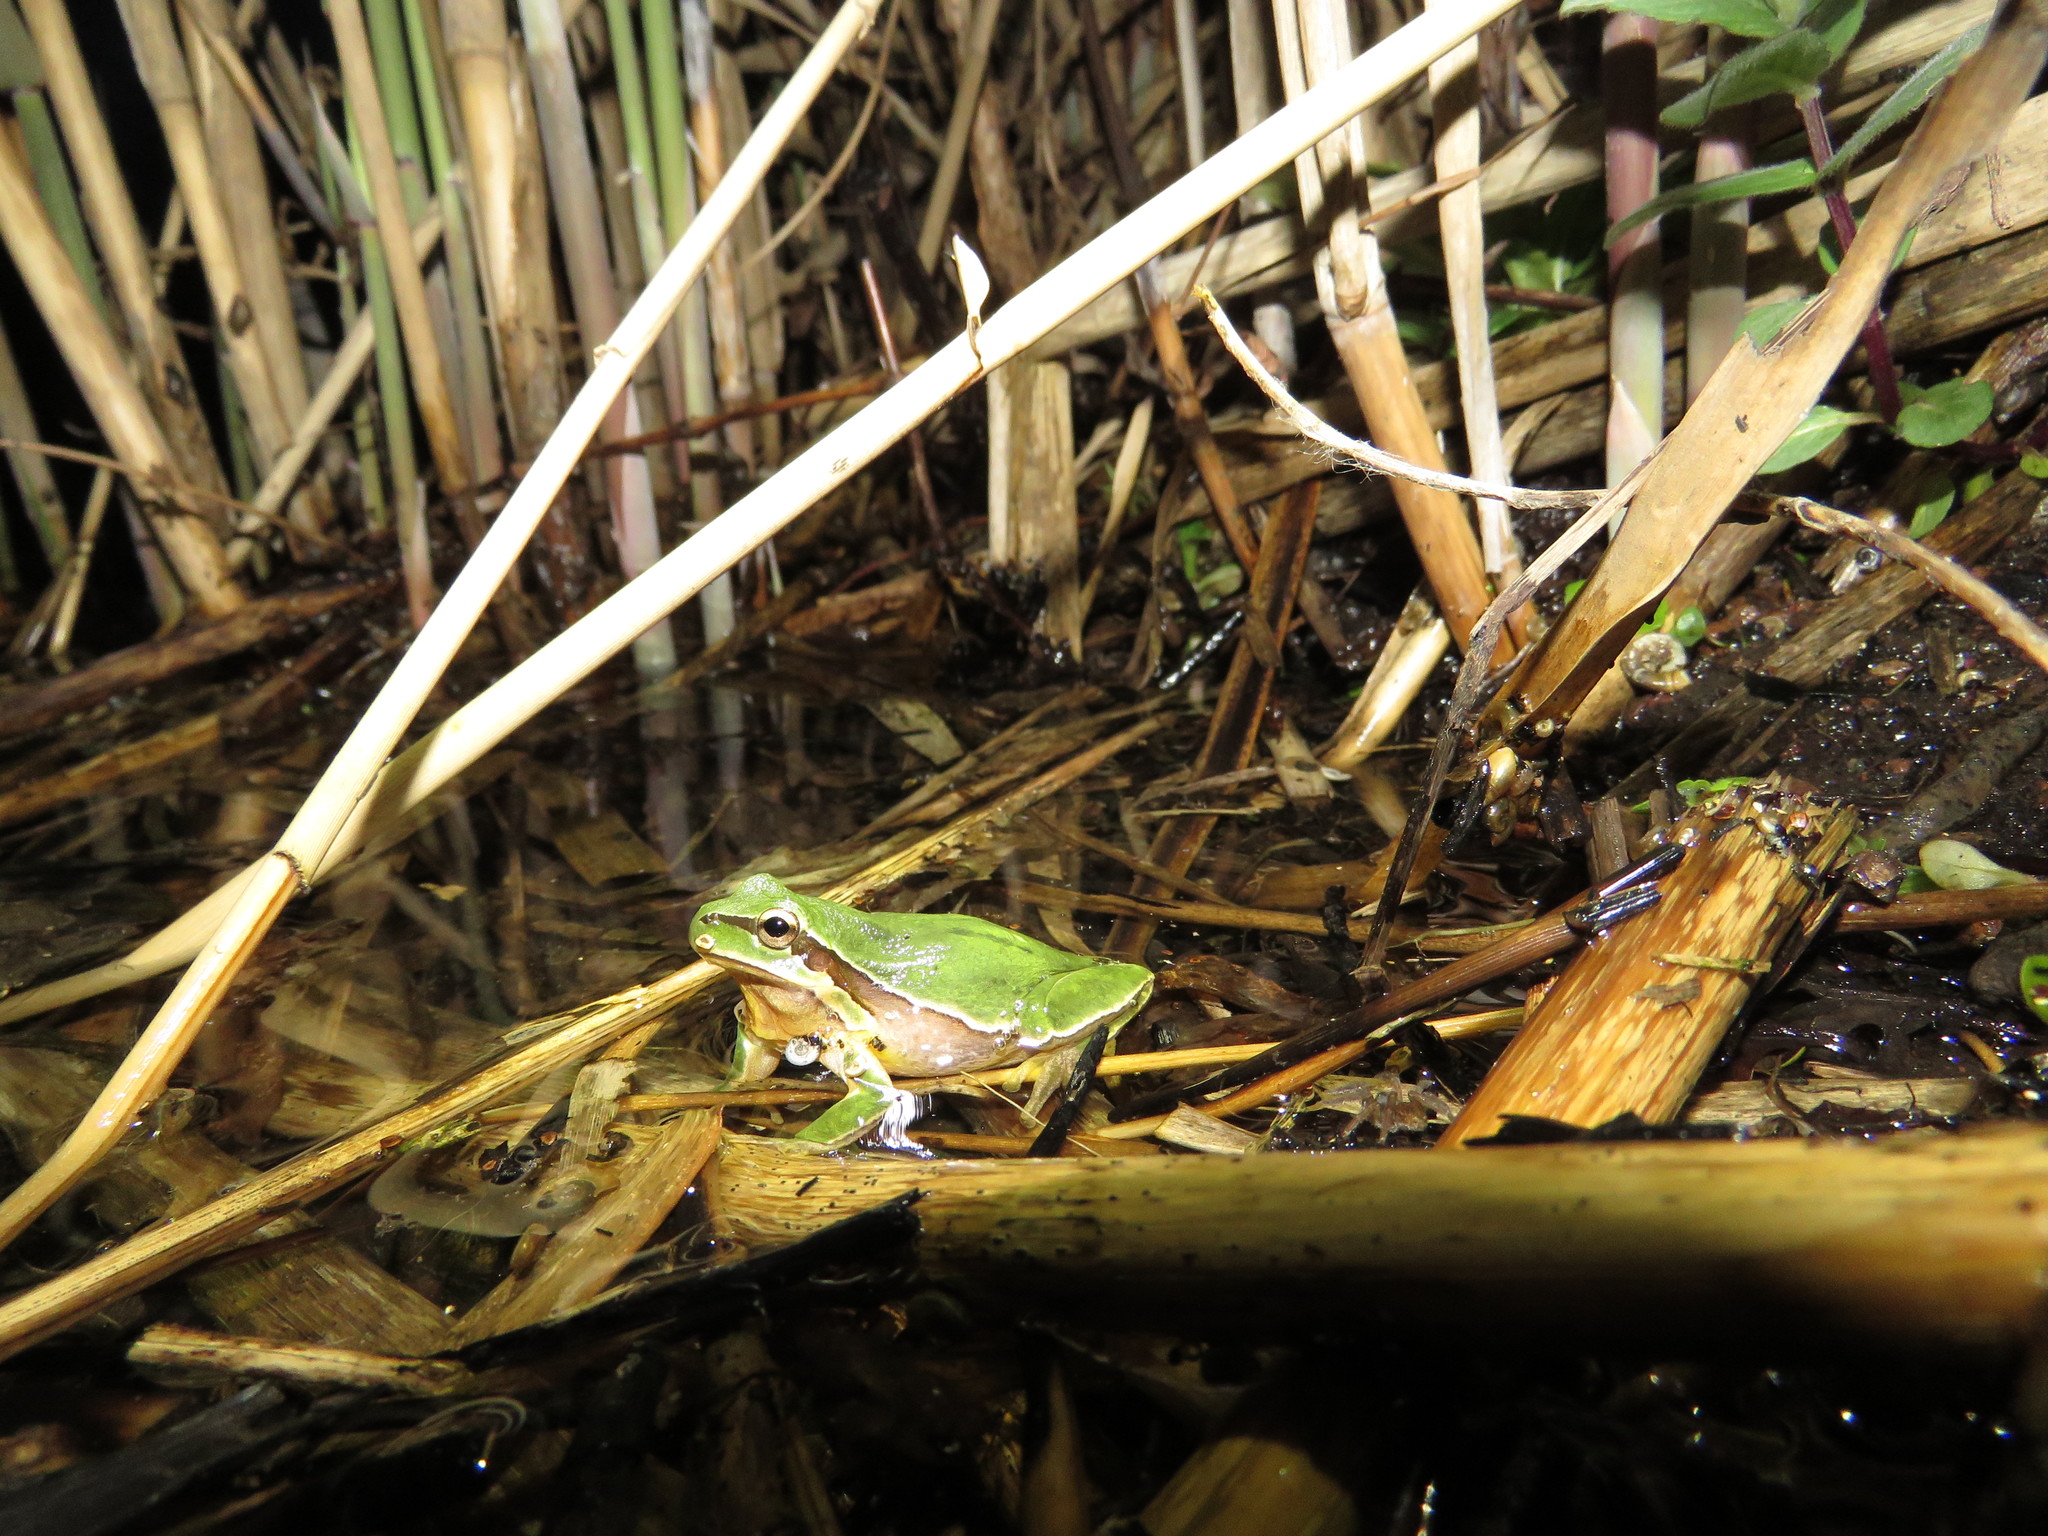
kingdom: Animalia
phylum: Chordata
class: Amphibia
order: Anura
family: Hylidae
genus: Hyla
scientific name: Hyla savignyi
